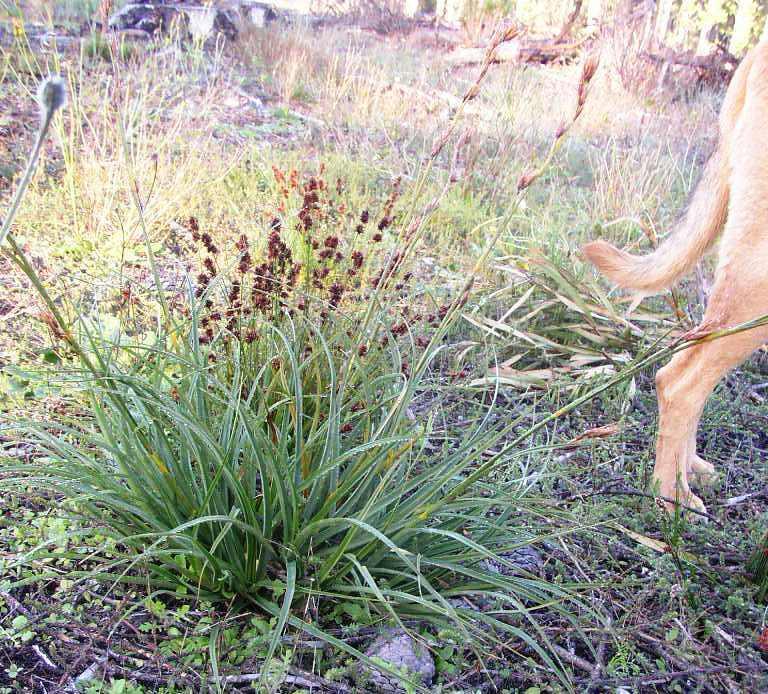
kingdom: Plantae
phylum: Tracheophyta
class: Liliopsida
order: Poales
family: Cyperaceae
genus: Ficinia
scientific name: Ficinia bulbosa
